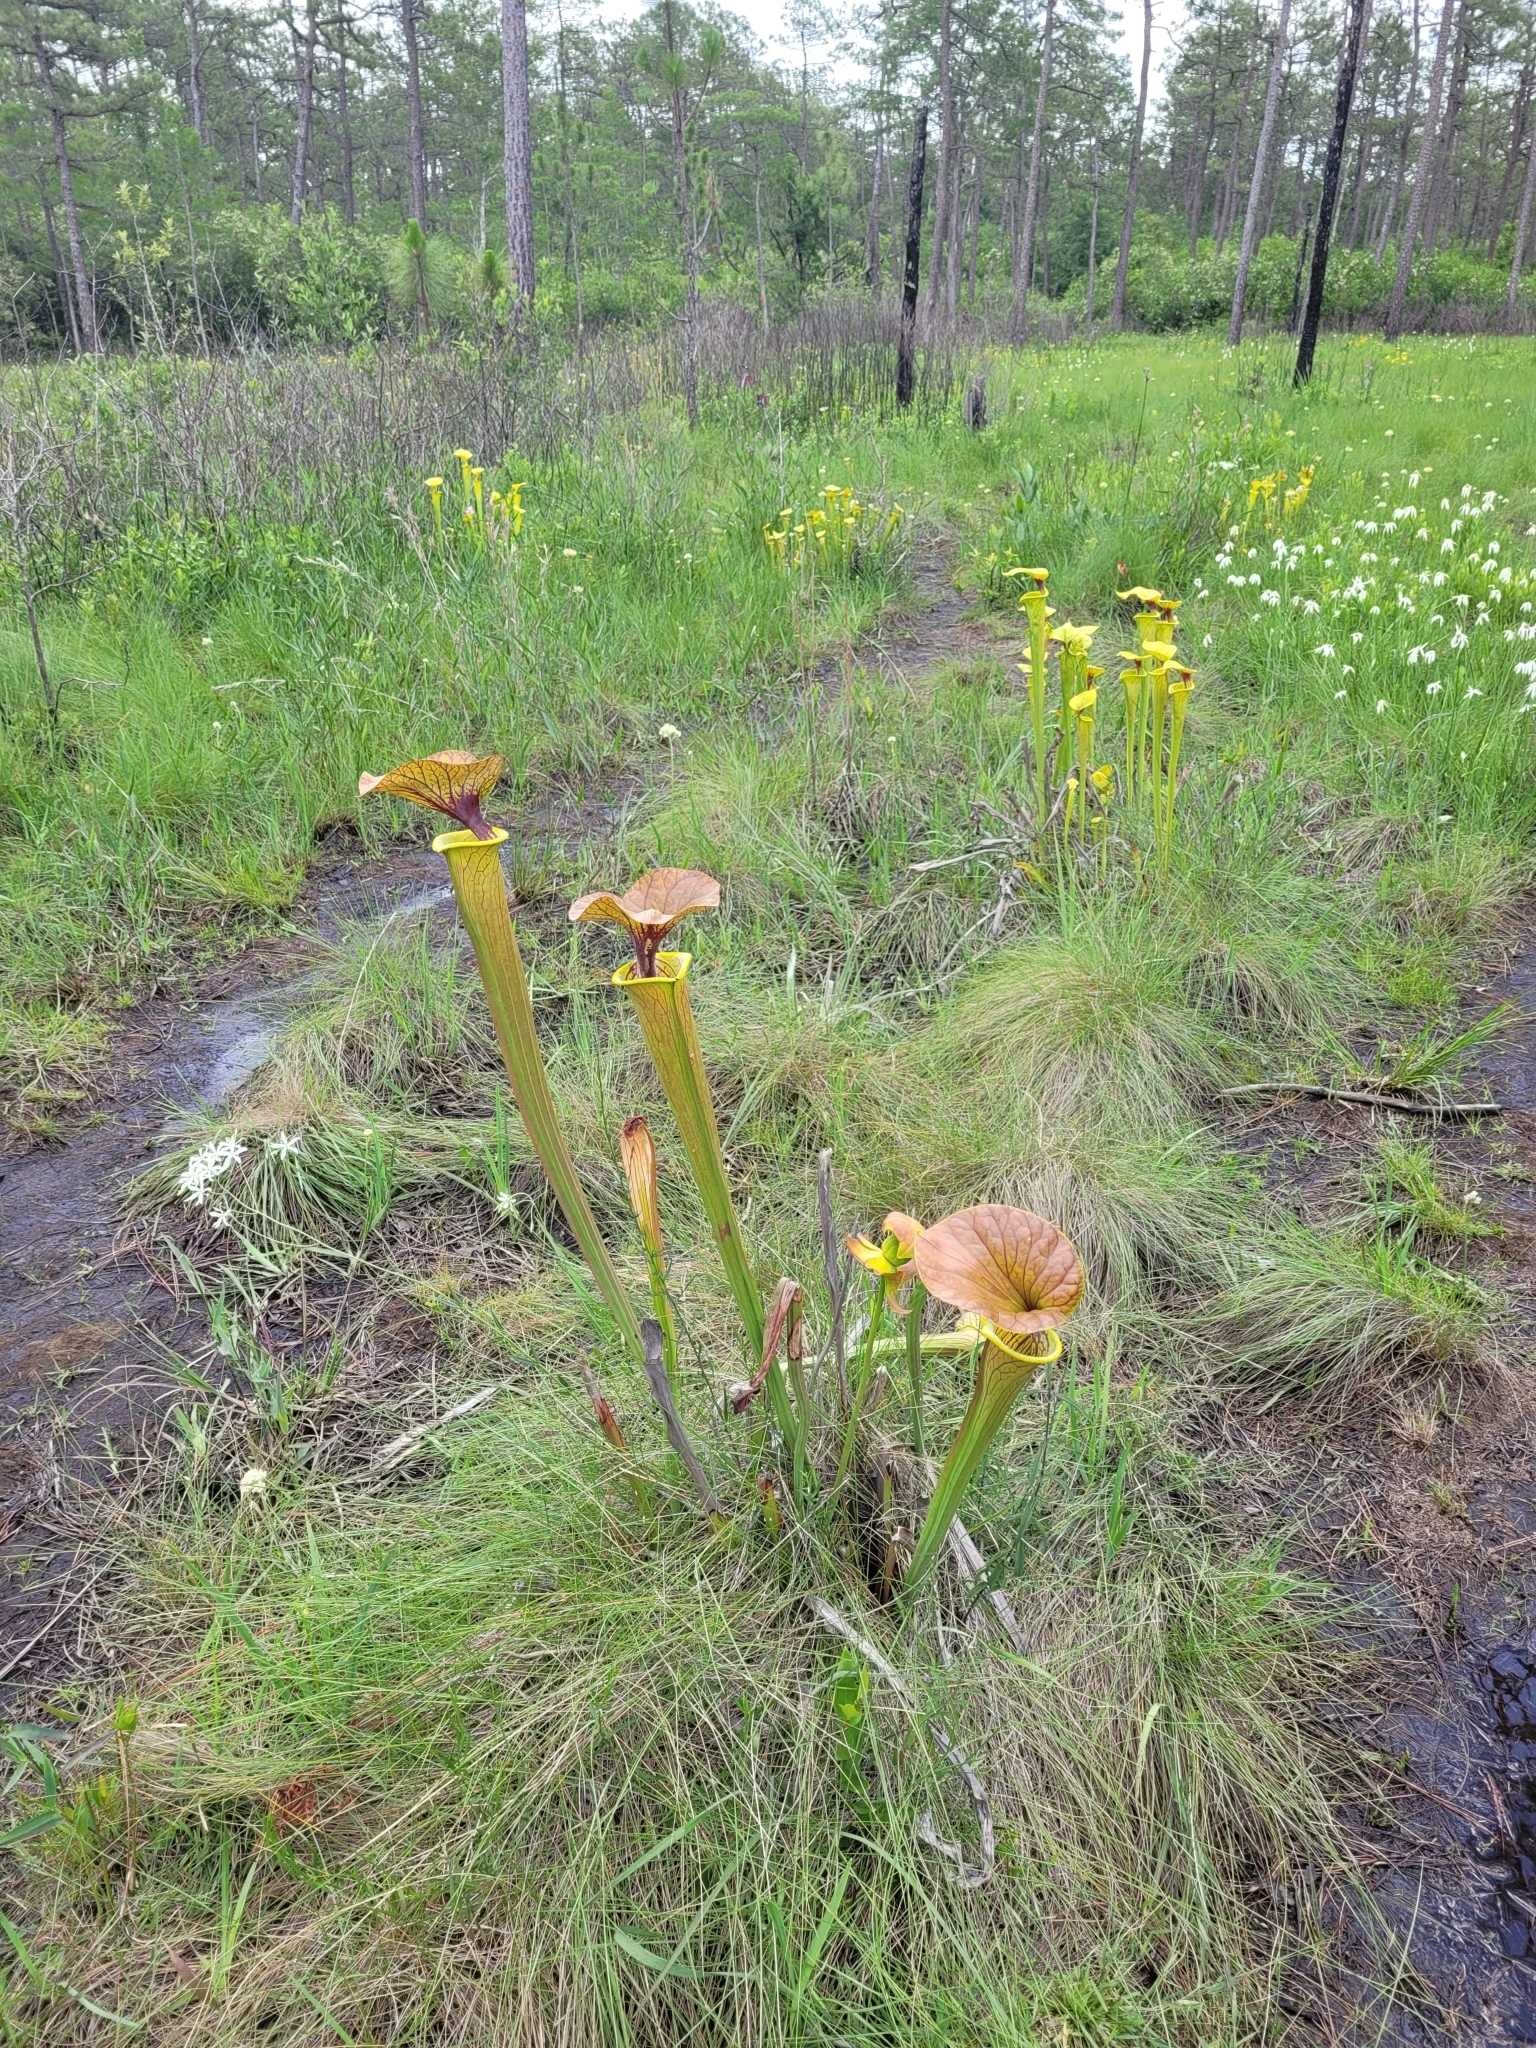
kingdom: Plantae
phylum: Tracheophyta
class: Magnoliopsida
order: Ericales
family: Sarraceniaceae
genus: Sarracenia
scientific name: Sarracenia flava
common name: Trumpets
